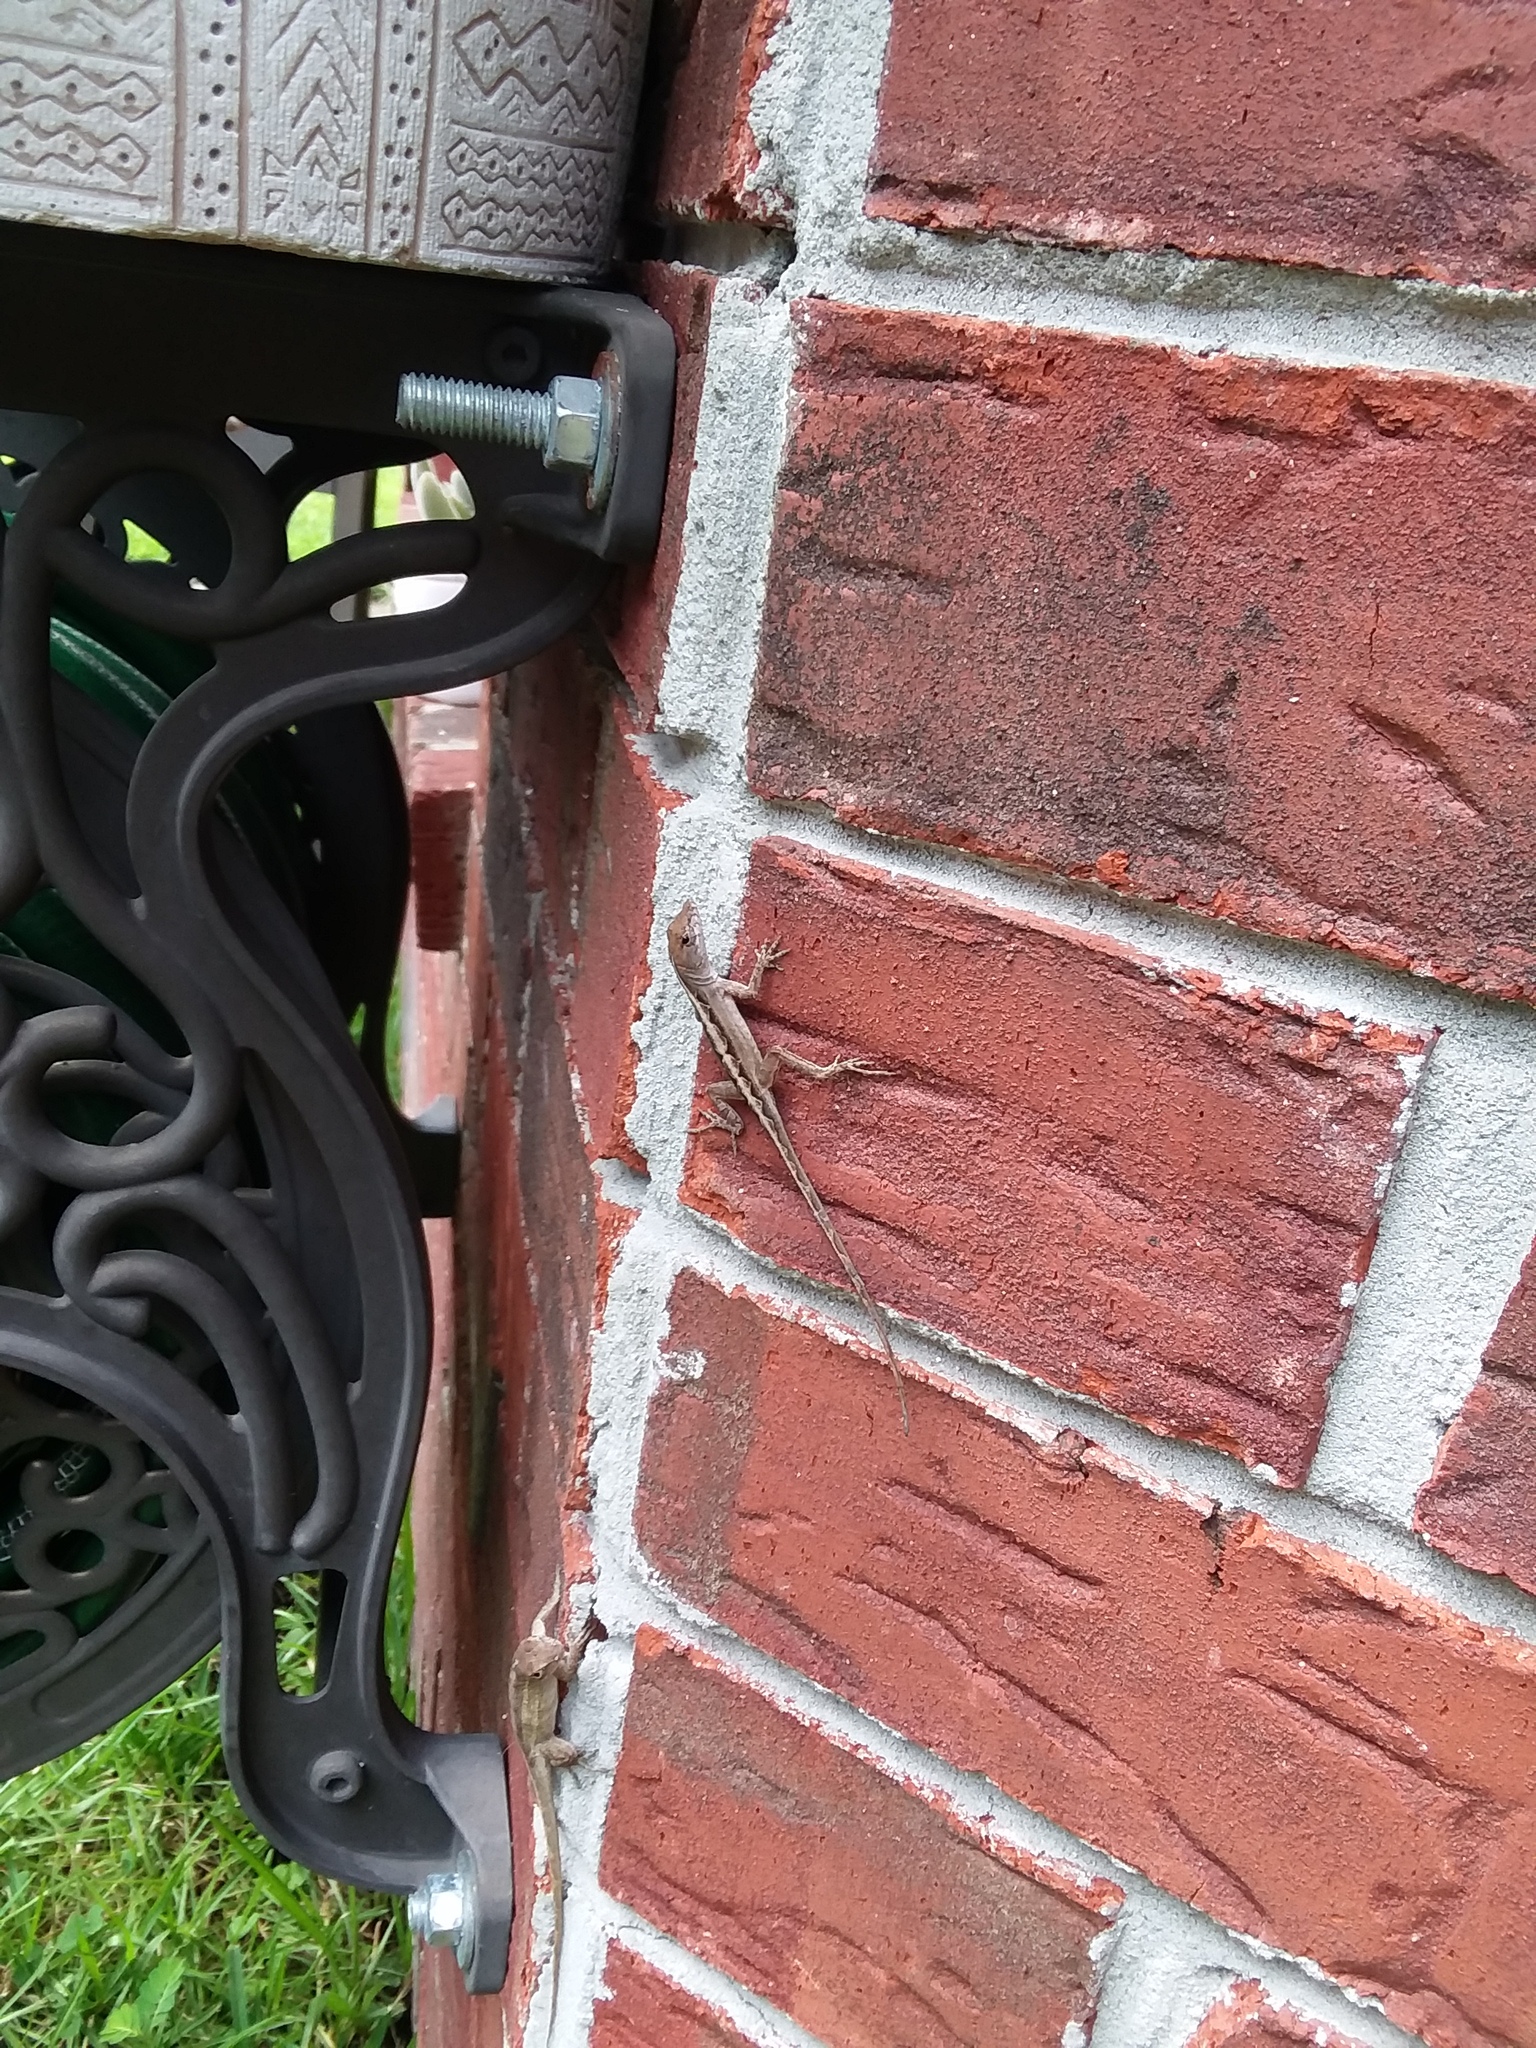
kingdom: Animalia
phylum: Chordata
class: Squamata
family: Dactyloidae
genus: Anolis
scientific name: Anolis sagrei
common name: Brown anole
